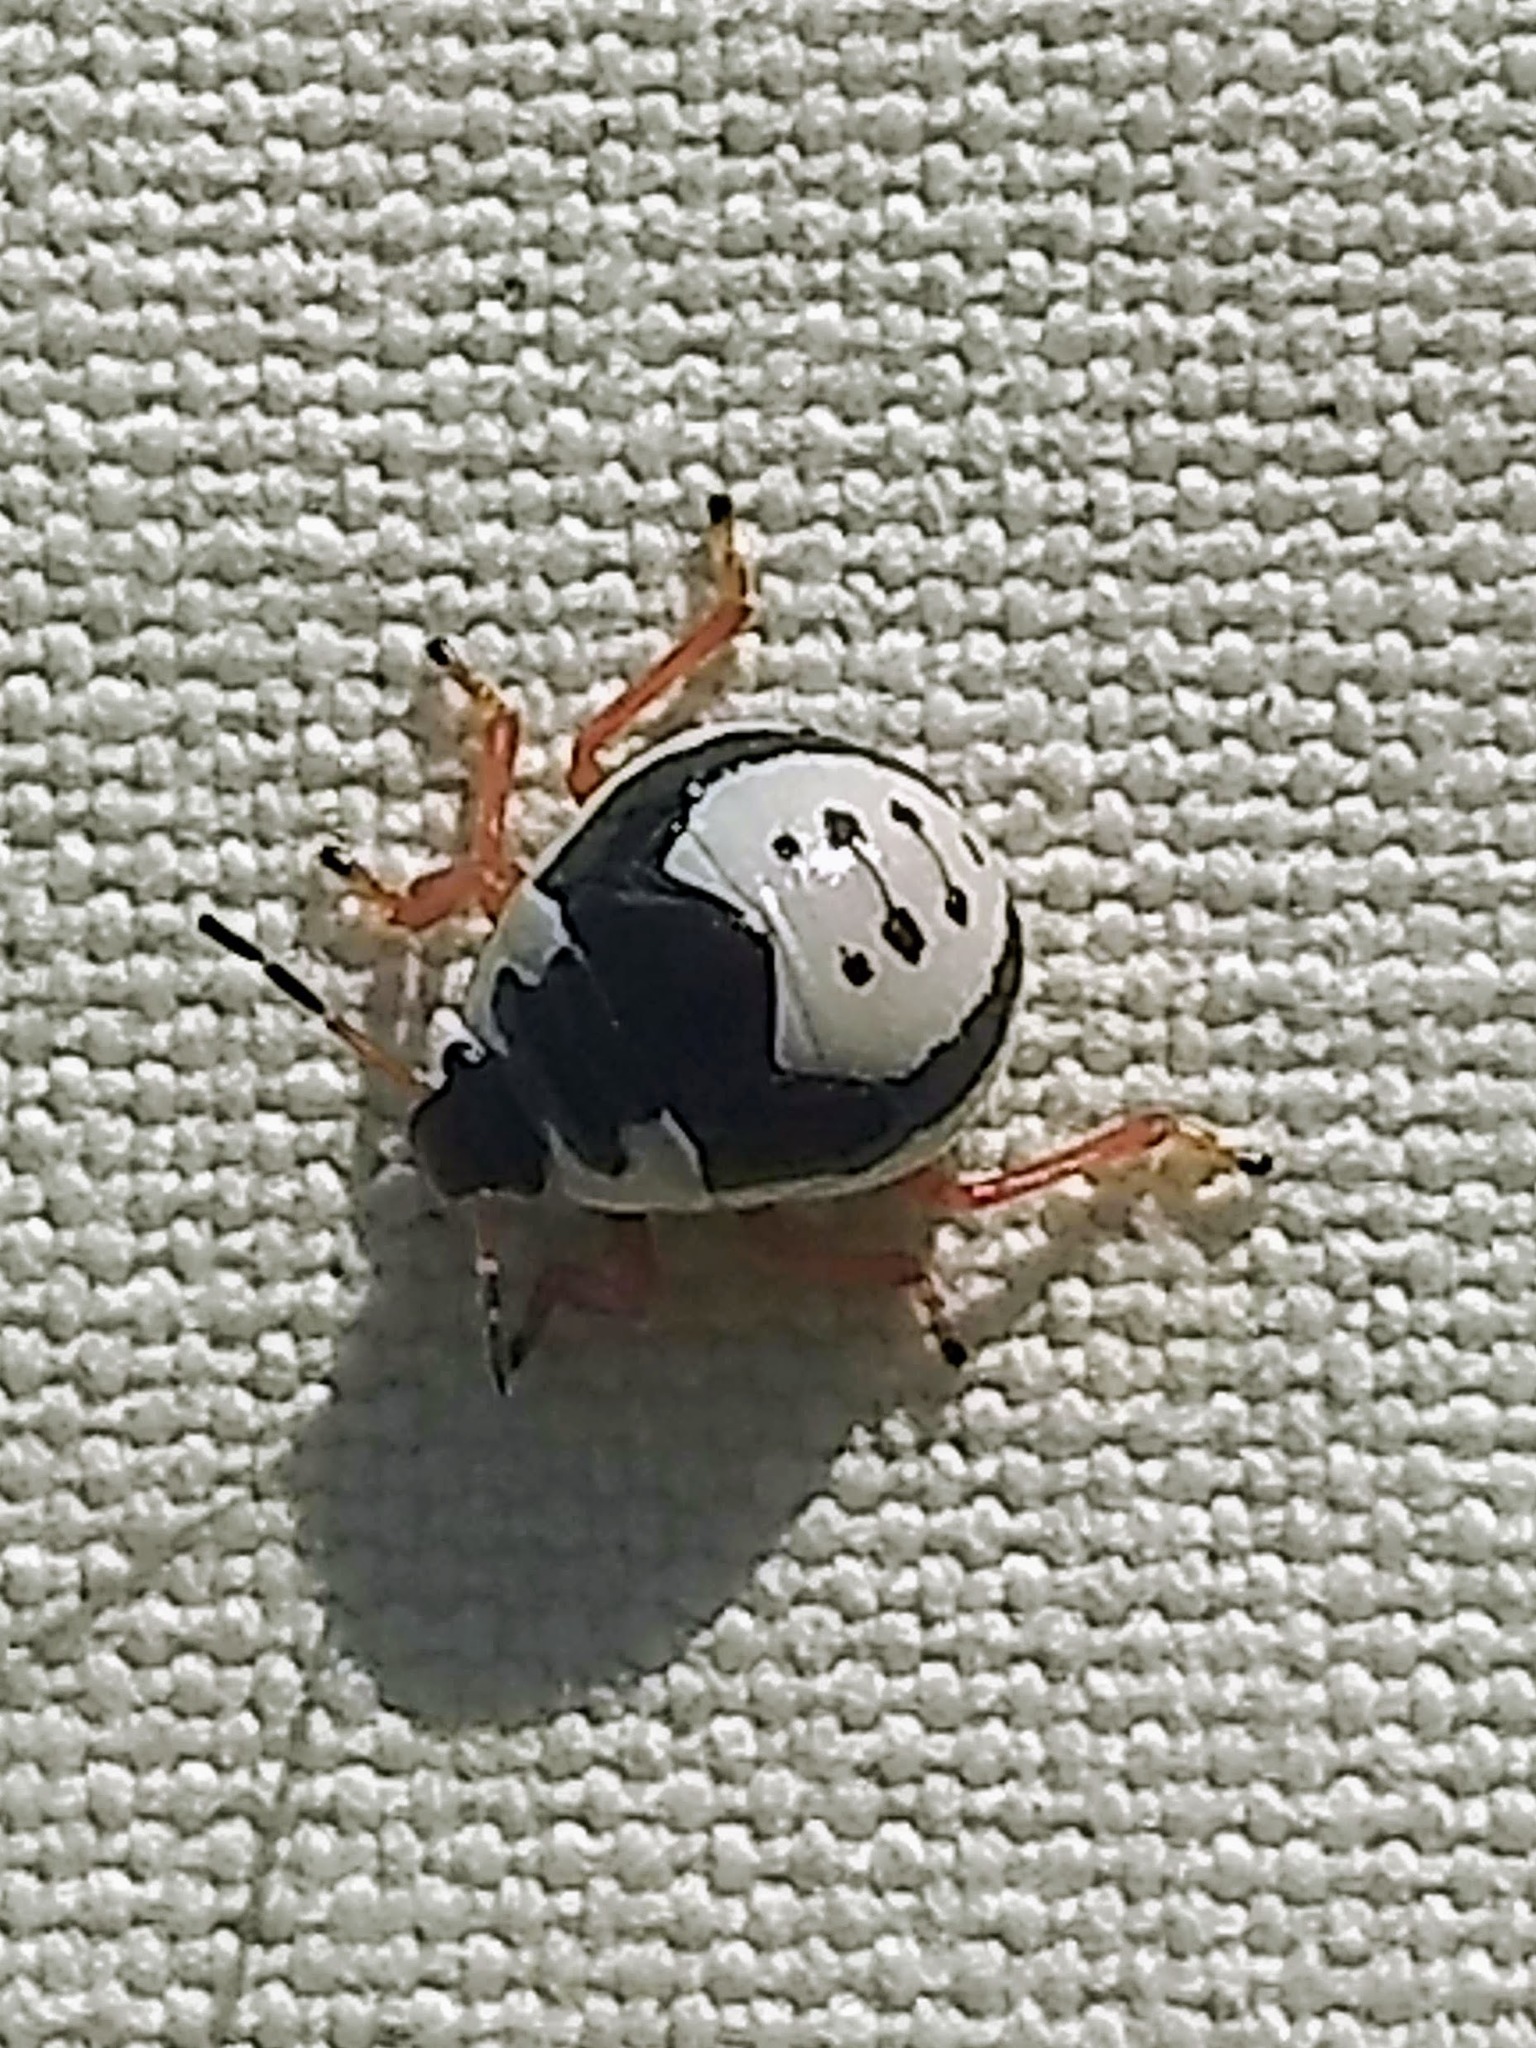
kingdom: Animalia
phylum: Arthropoda
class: Insecta
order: Hemiptera
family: Pentatomidae
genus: Stiretrus
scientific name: Stiretrus anchorago
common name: Anchor stink bug
